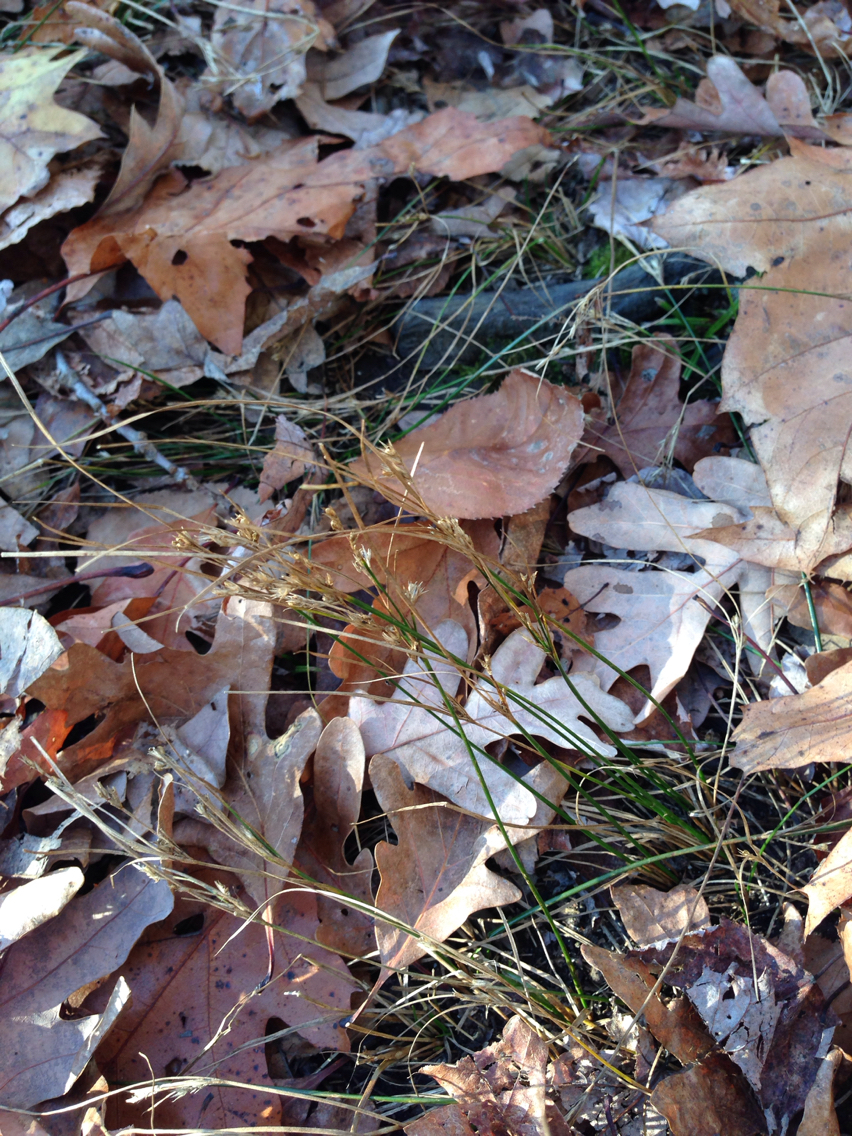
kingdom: Plantae
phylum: Tracheophyta
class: Liliopsida
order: Poales
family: Juncaceae
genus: Juncus
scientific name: Juncus tenuis
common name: Slender rush
